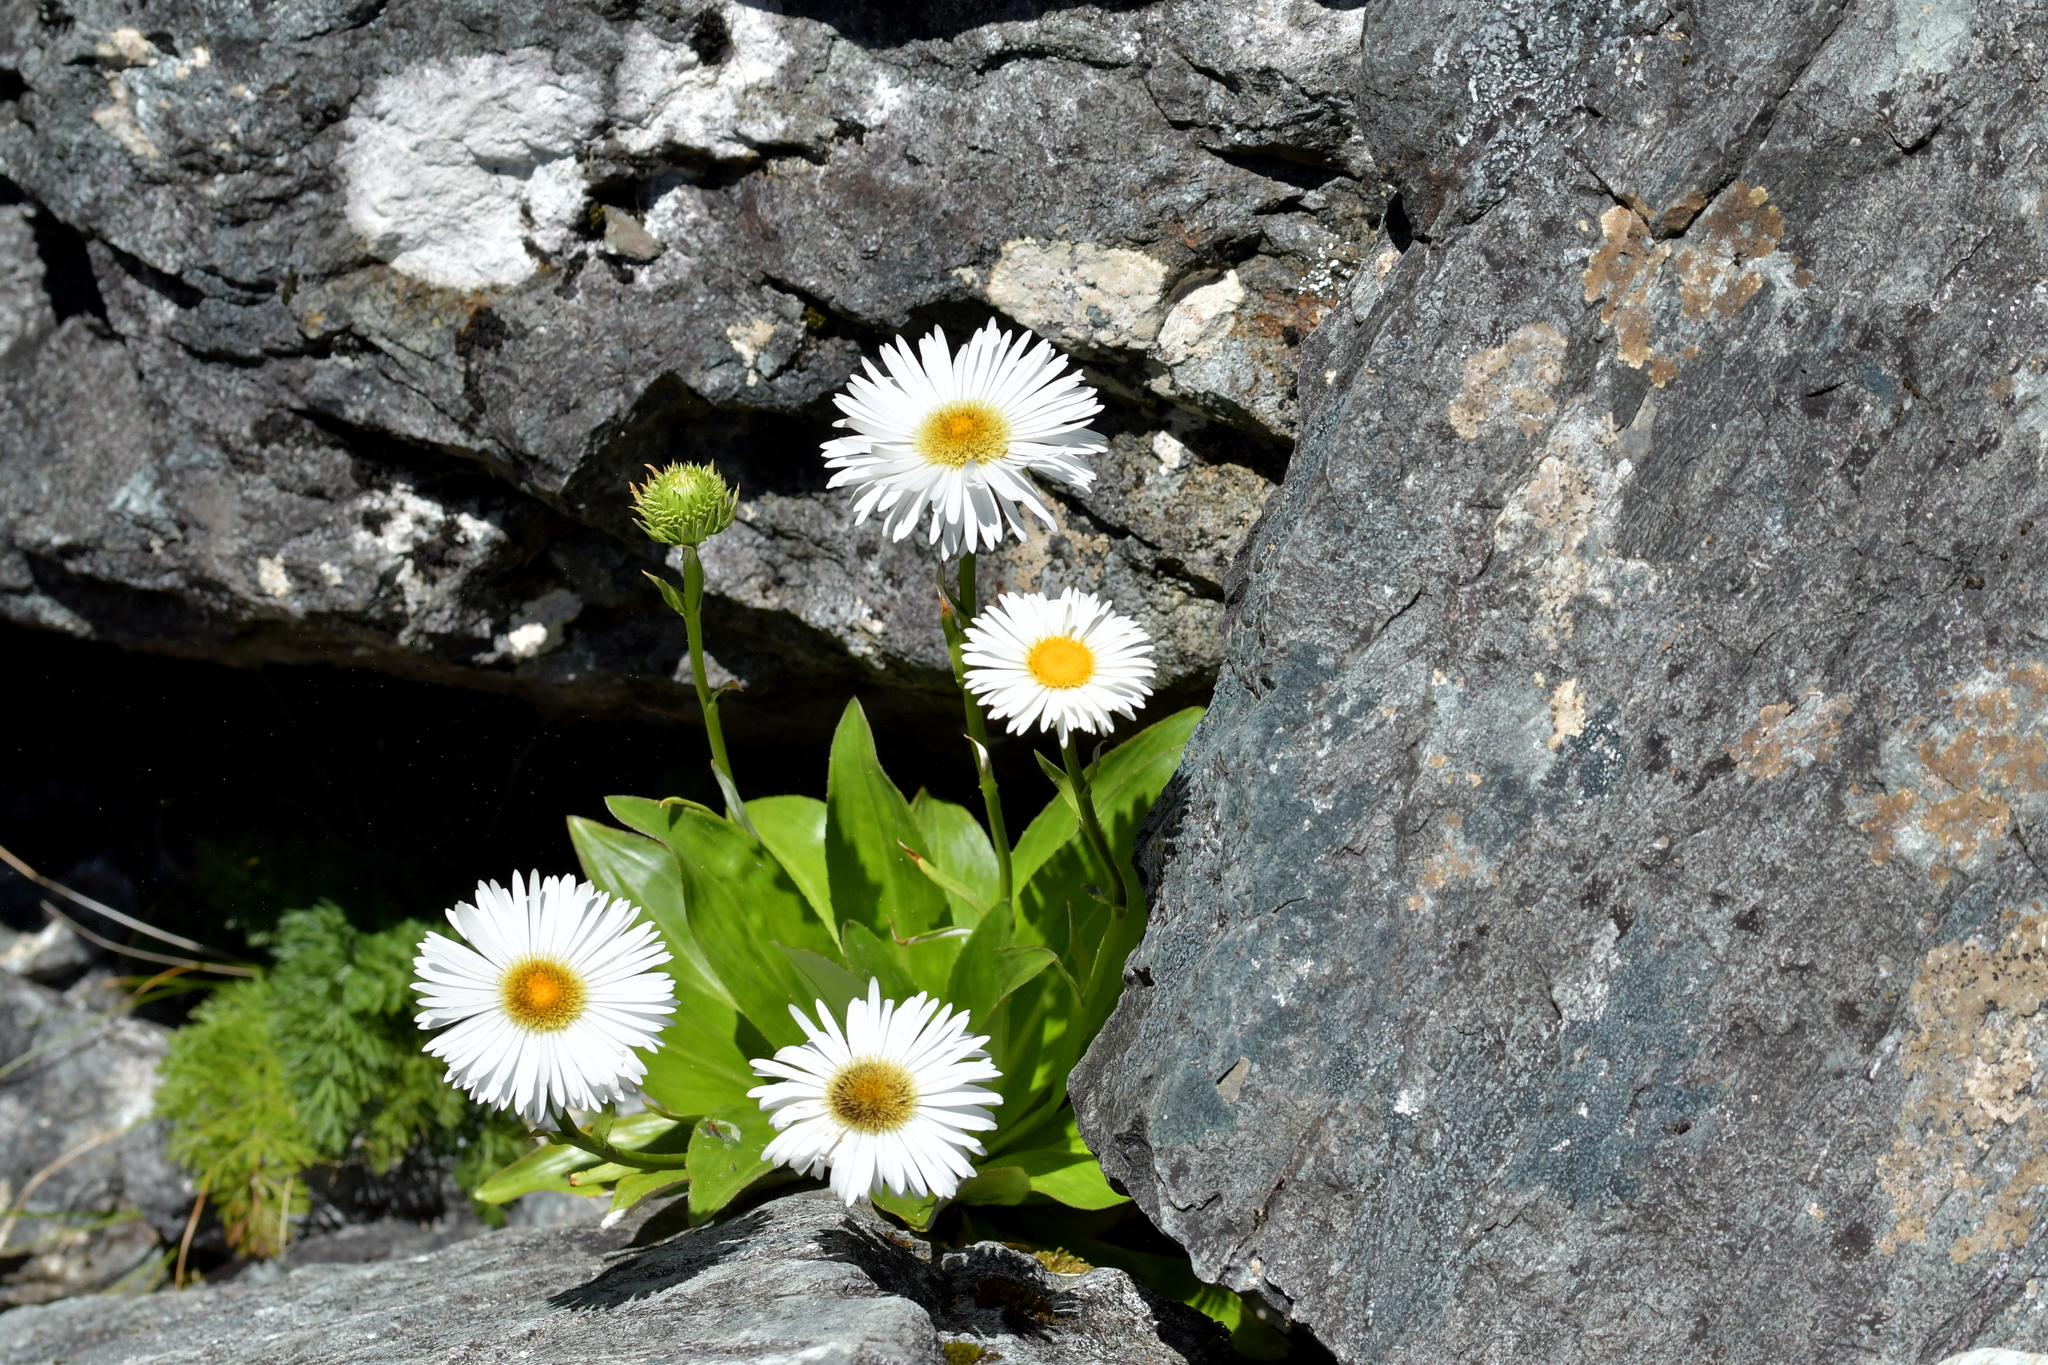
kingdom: Plantae
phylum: Tracheophyta
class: Magnoliopsida
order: Asterales
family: Asteraceae
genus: Celmisia
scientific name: Celmisia holosericea
